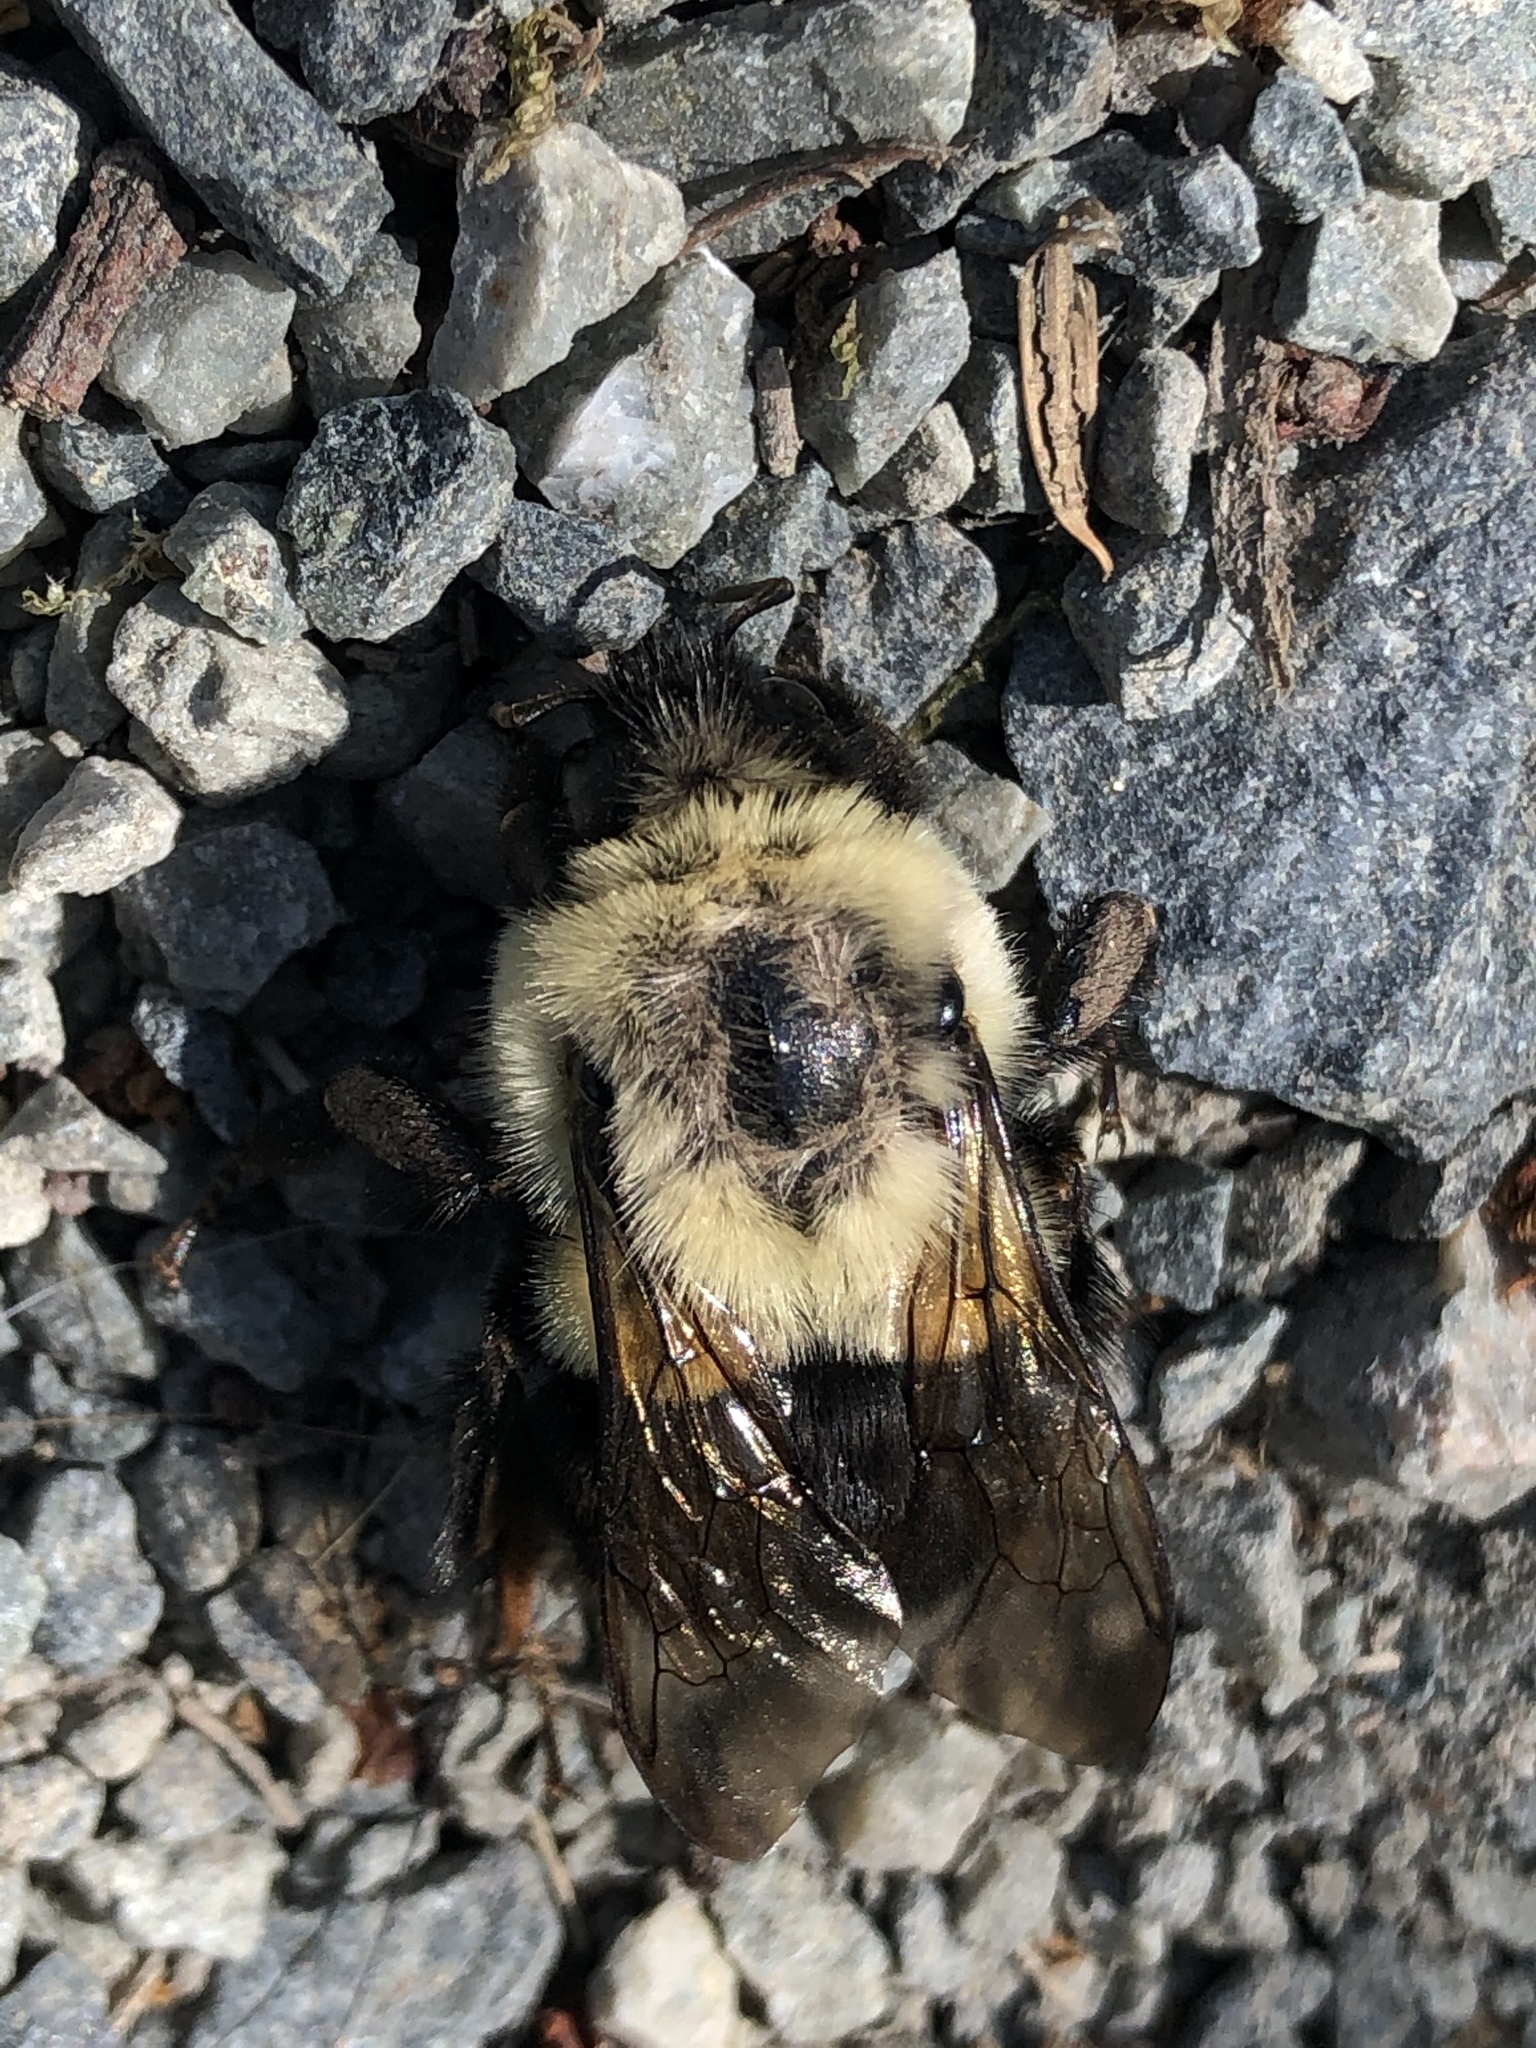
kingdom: Animalia
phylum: Arthropoda
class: Insecta
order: Hymenoptera
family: Apidae
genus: Bombus
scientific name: Bombus impatiens
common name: Common eastern bumble bee
